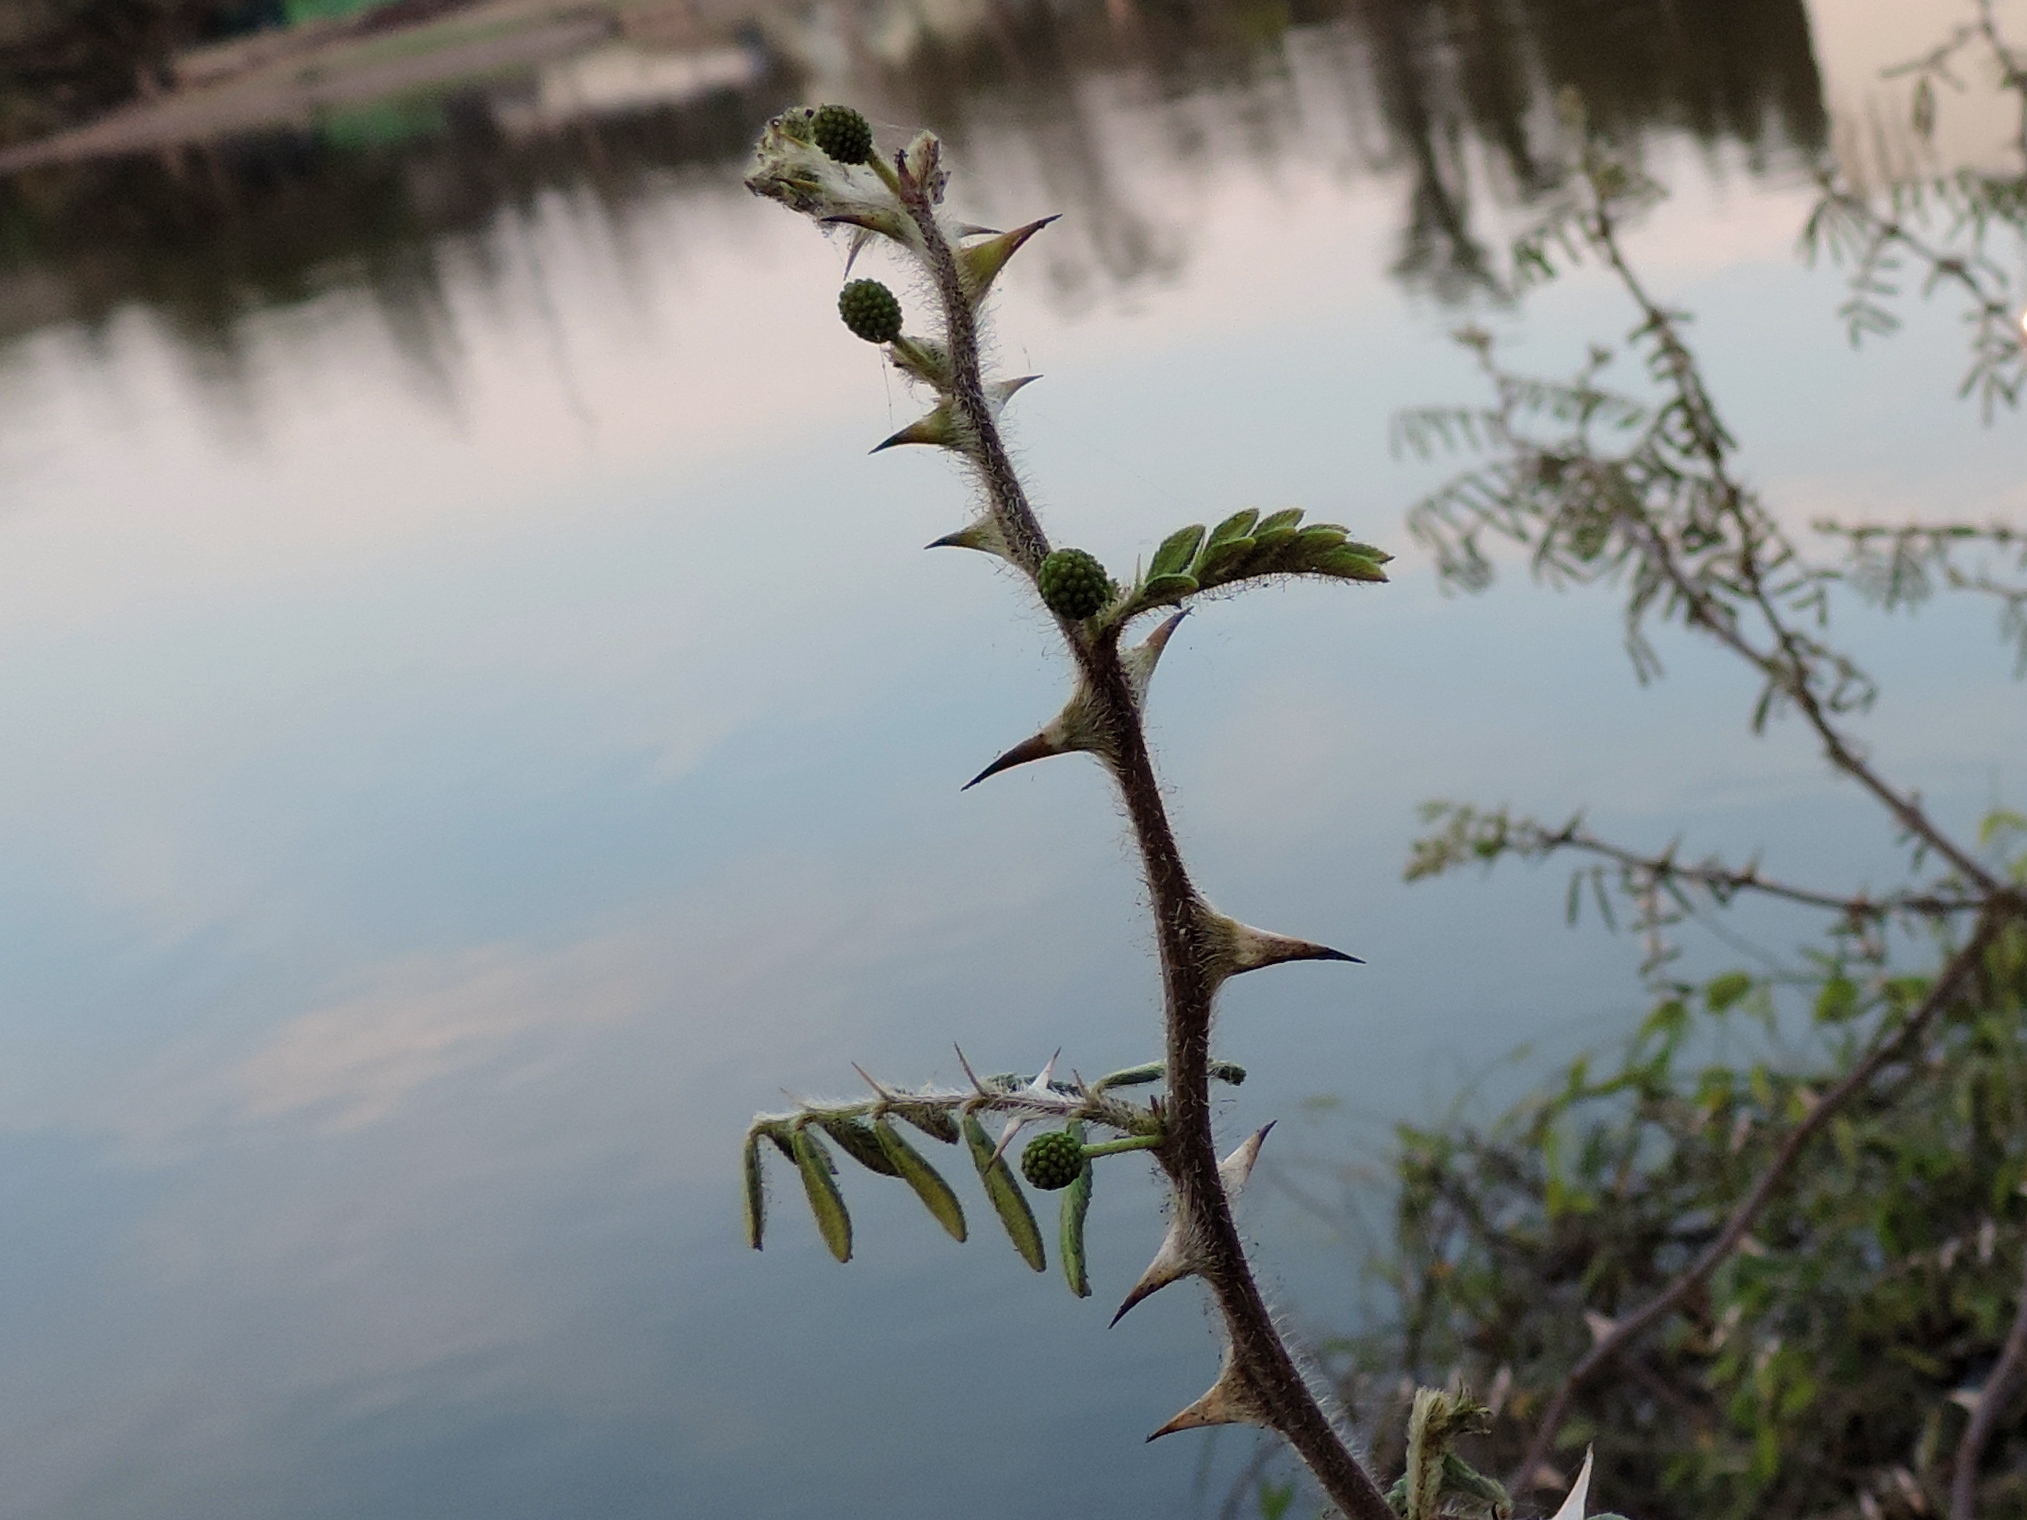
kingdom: Plantae
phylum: Tracheophyta
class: Magnoliopsida
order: Fabales
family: Fabaceae
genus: Mimosa
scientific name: Mimosa pigra
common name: Black mimosa
